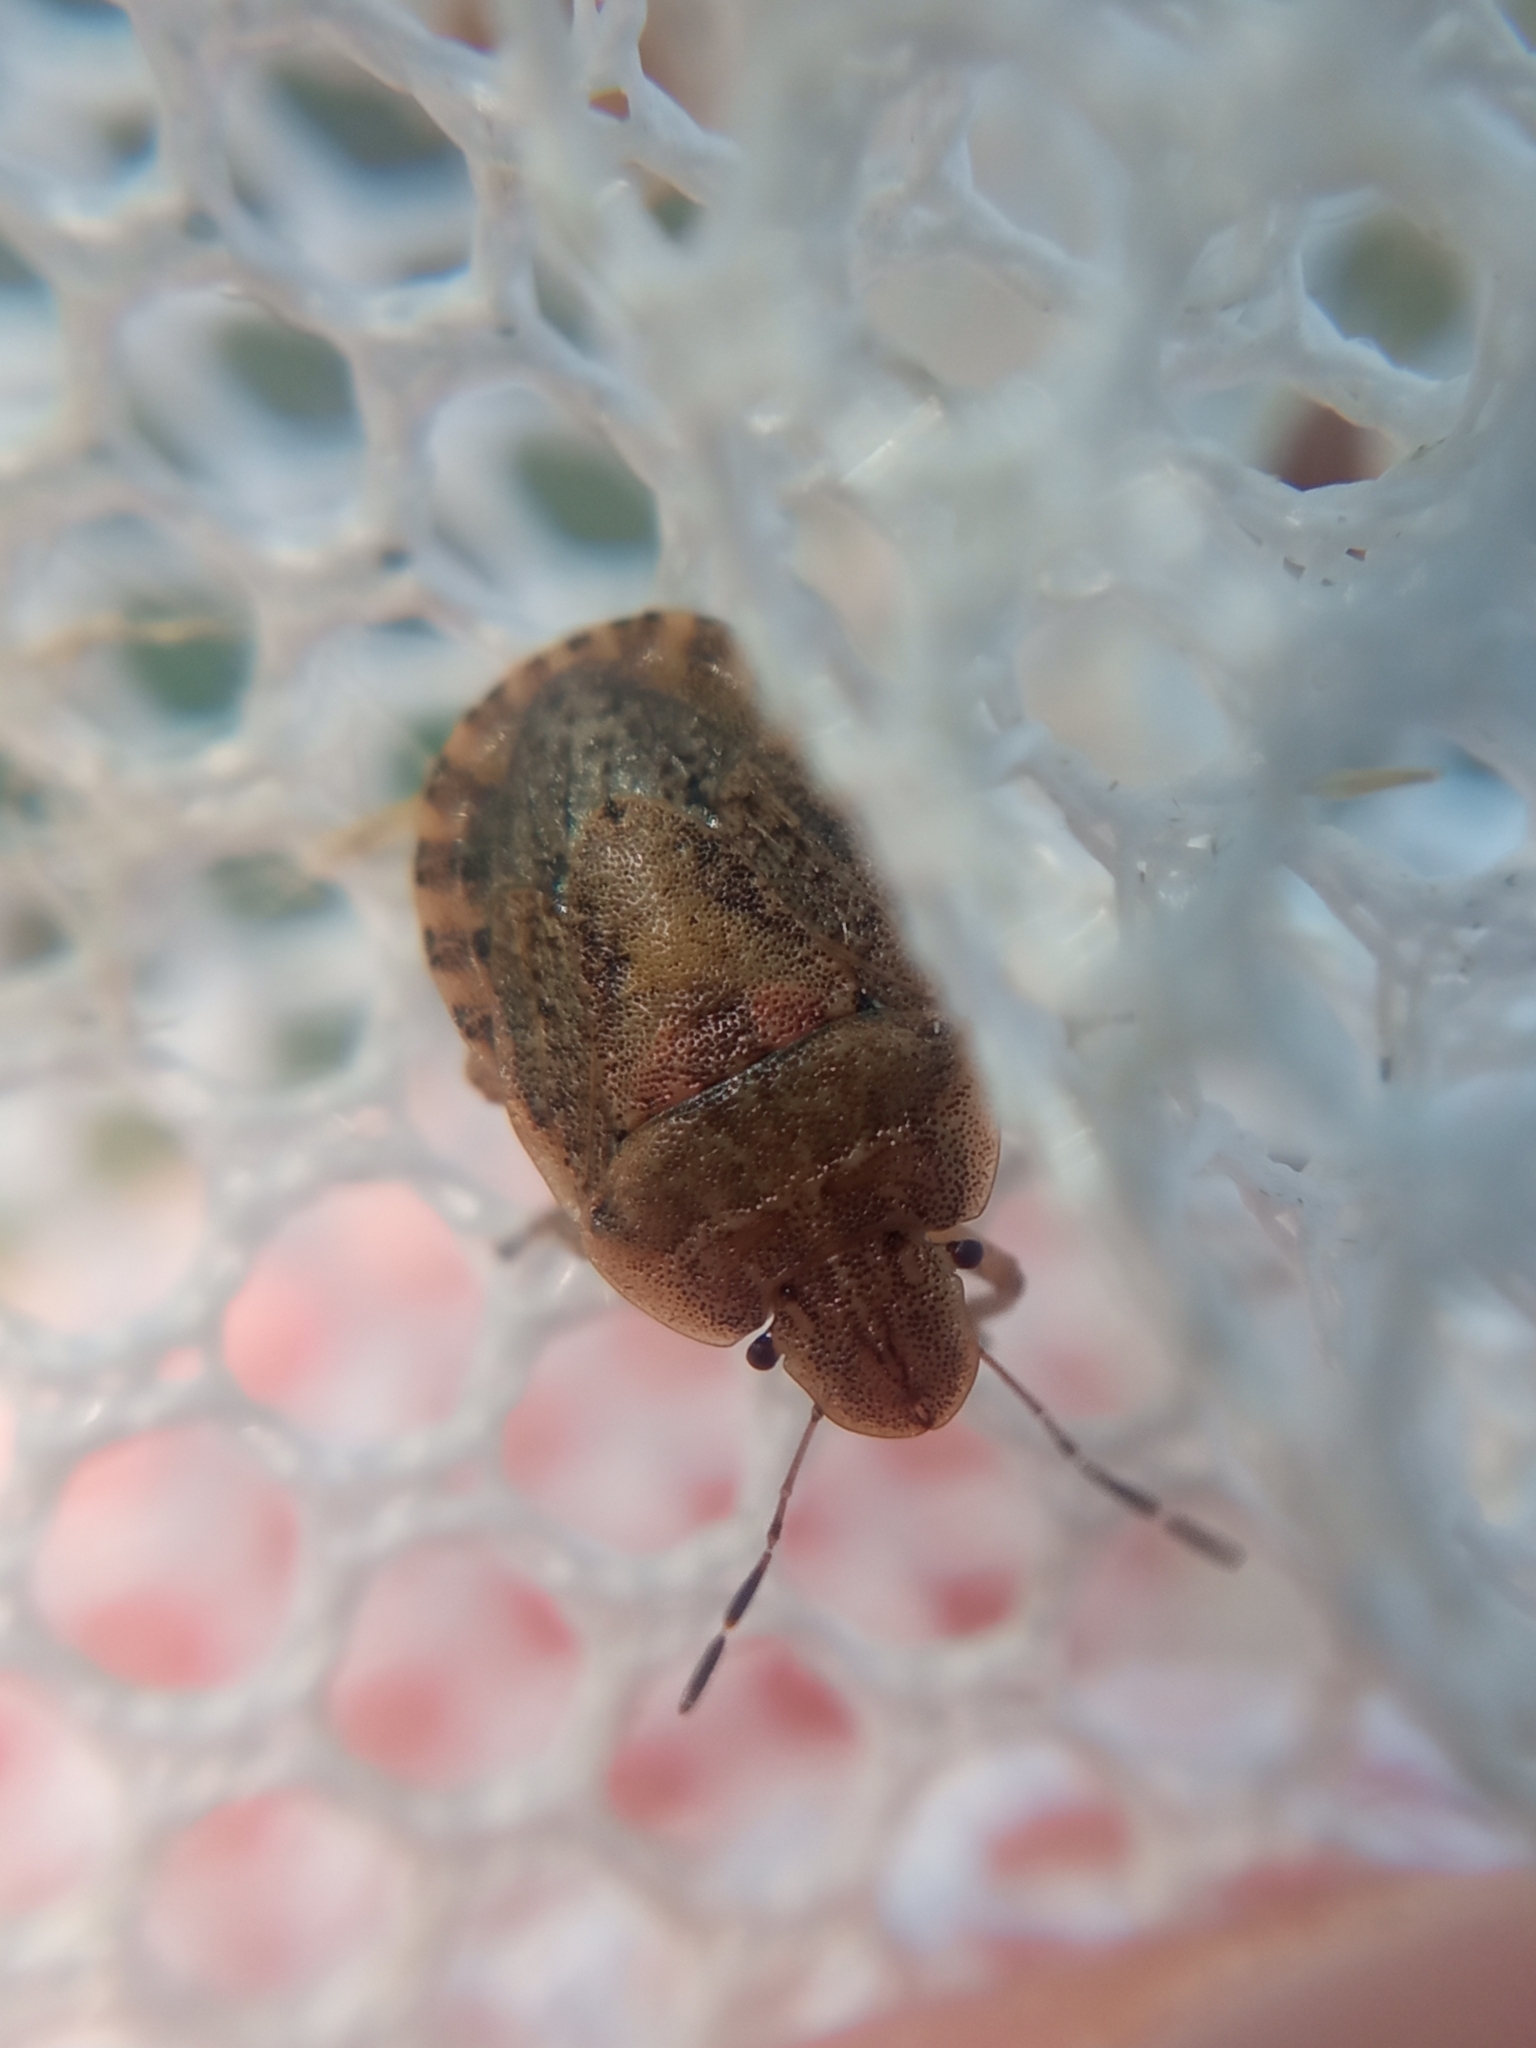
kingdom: Animalia
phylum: Arthropoda
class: Insecta
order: Hemiptera
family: Pentatomidae
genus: Sciocoris
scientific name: Sciocoris macrocephalus
